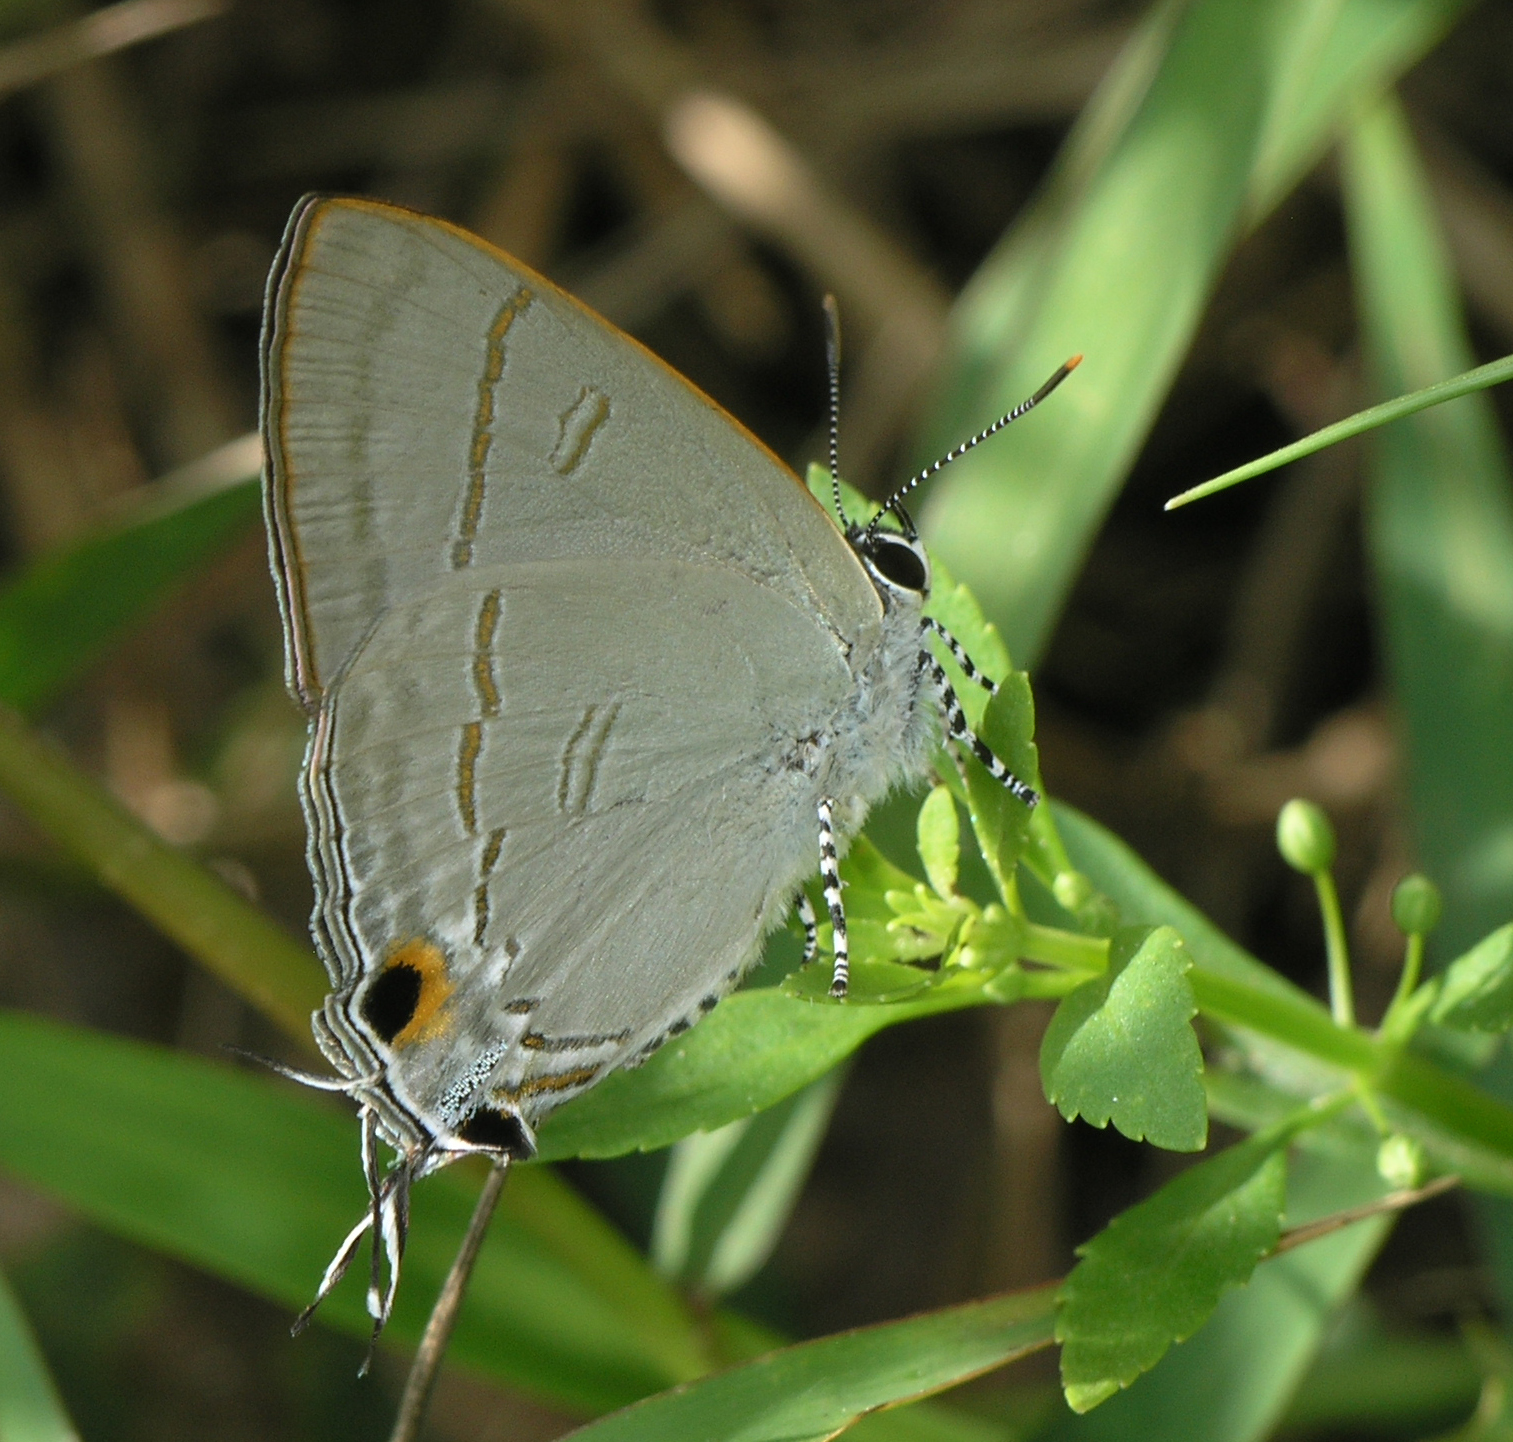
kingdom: Animalia
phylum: Arthropoda
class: Insecta
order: Lepidoptera
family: Lycaenidae
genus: Hypolycaena
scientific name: Hypolycaena erylus
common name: Common tit
